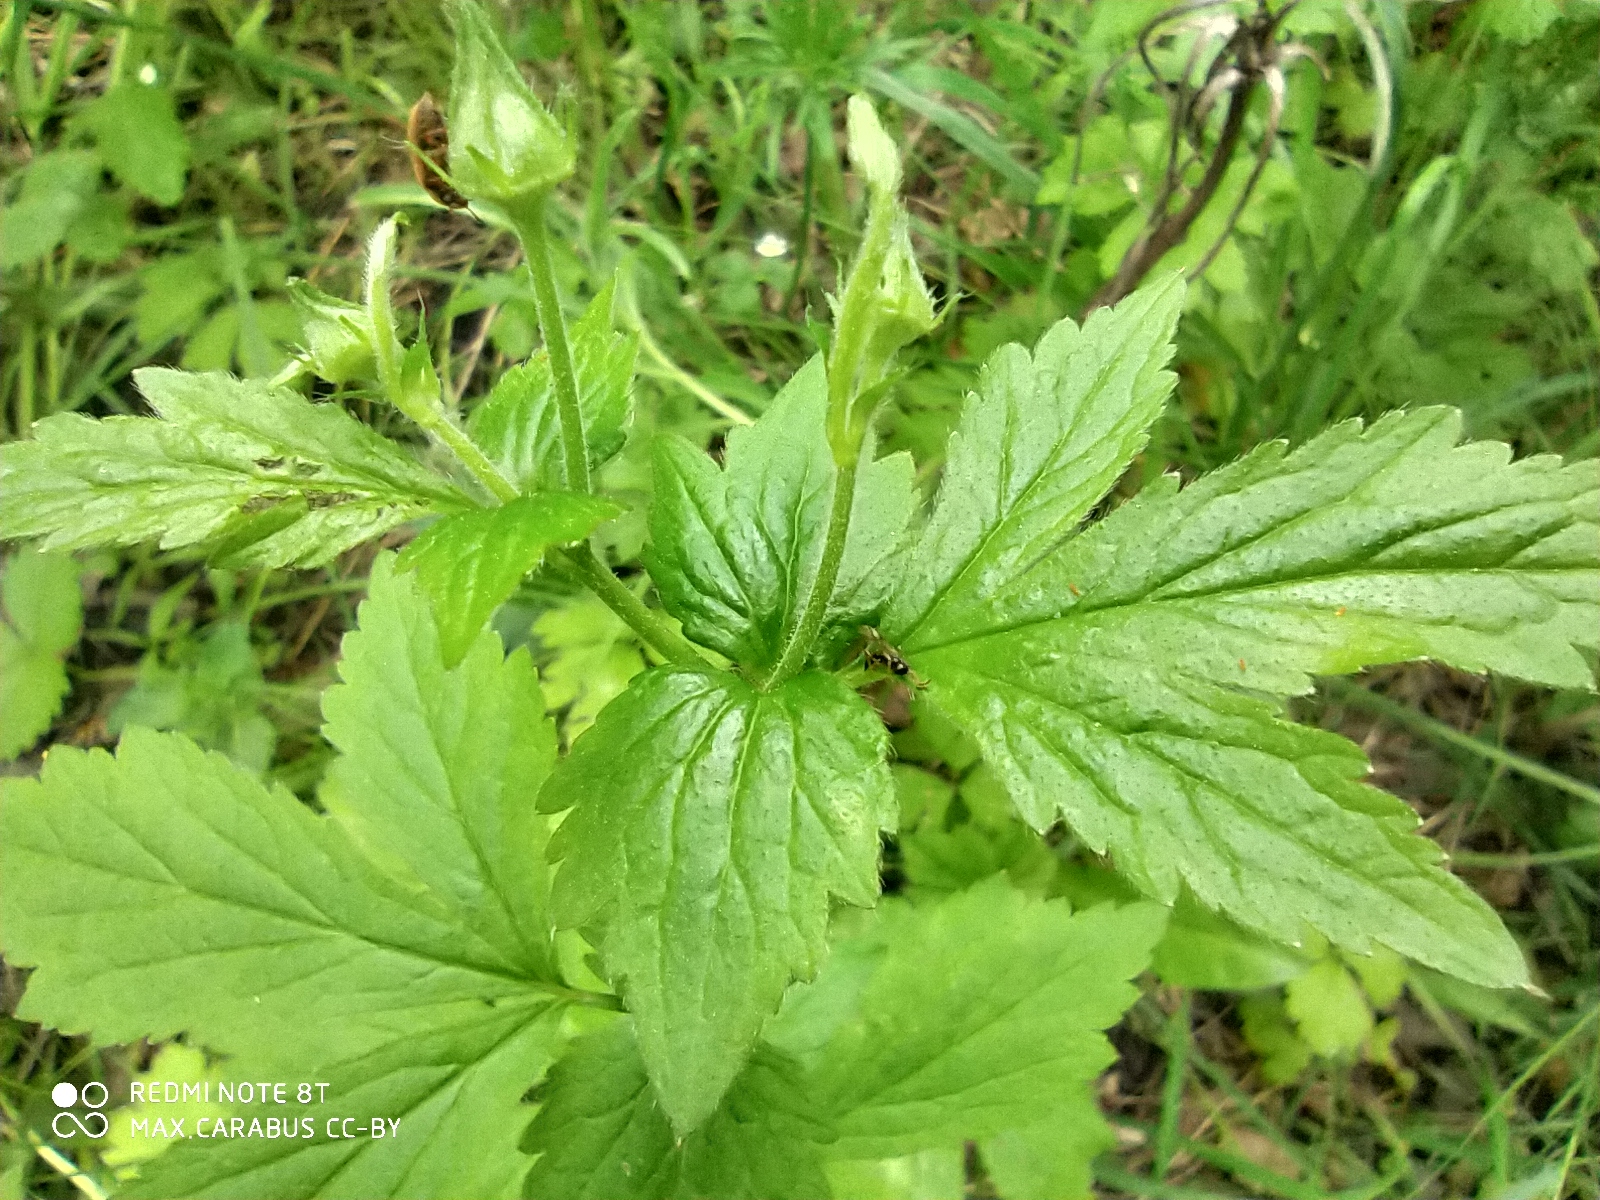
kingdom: Plantae
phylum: Tracheophyta
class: Magnoliopsida
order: Rosales
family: Rosaceae
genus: Geum
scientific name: Geum urbanum
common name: Wood avens
